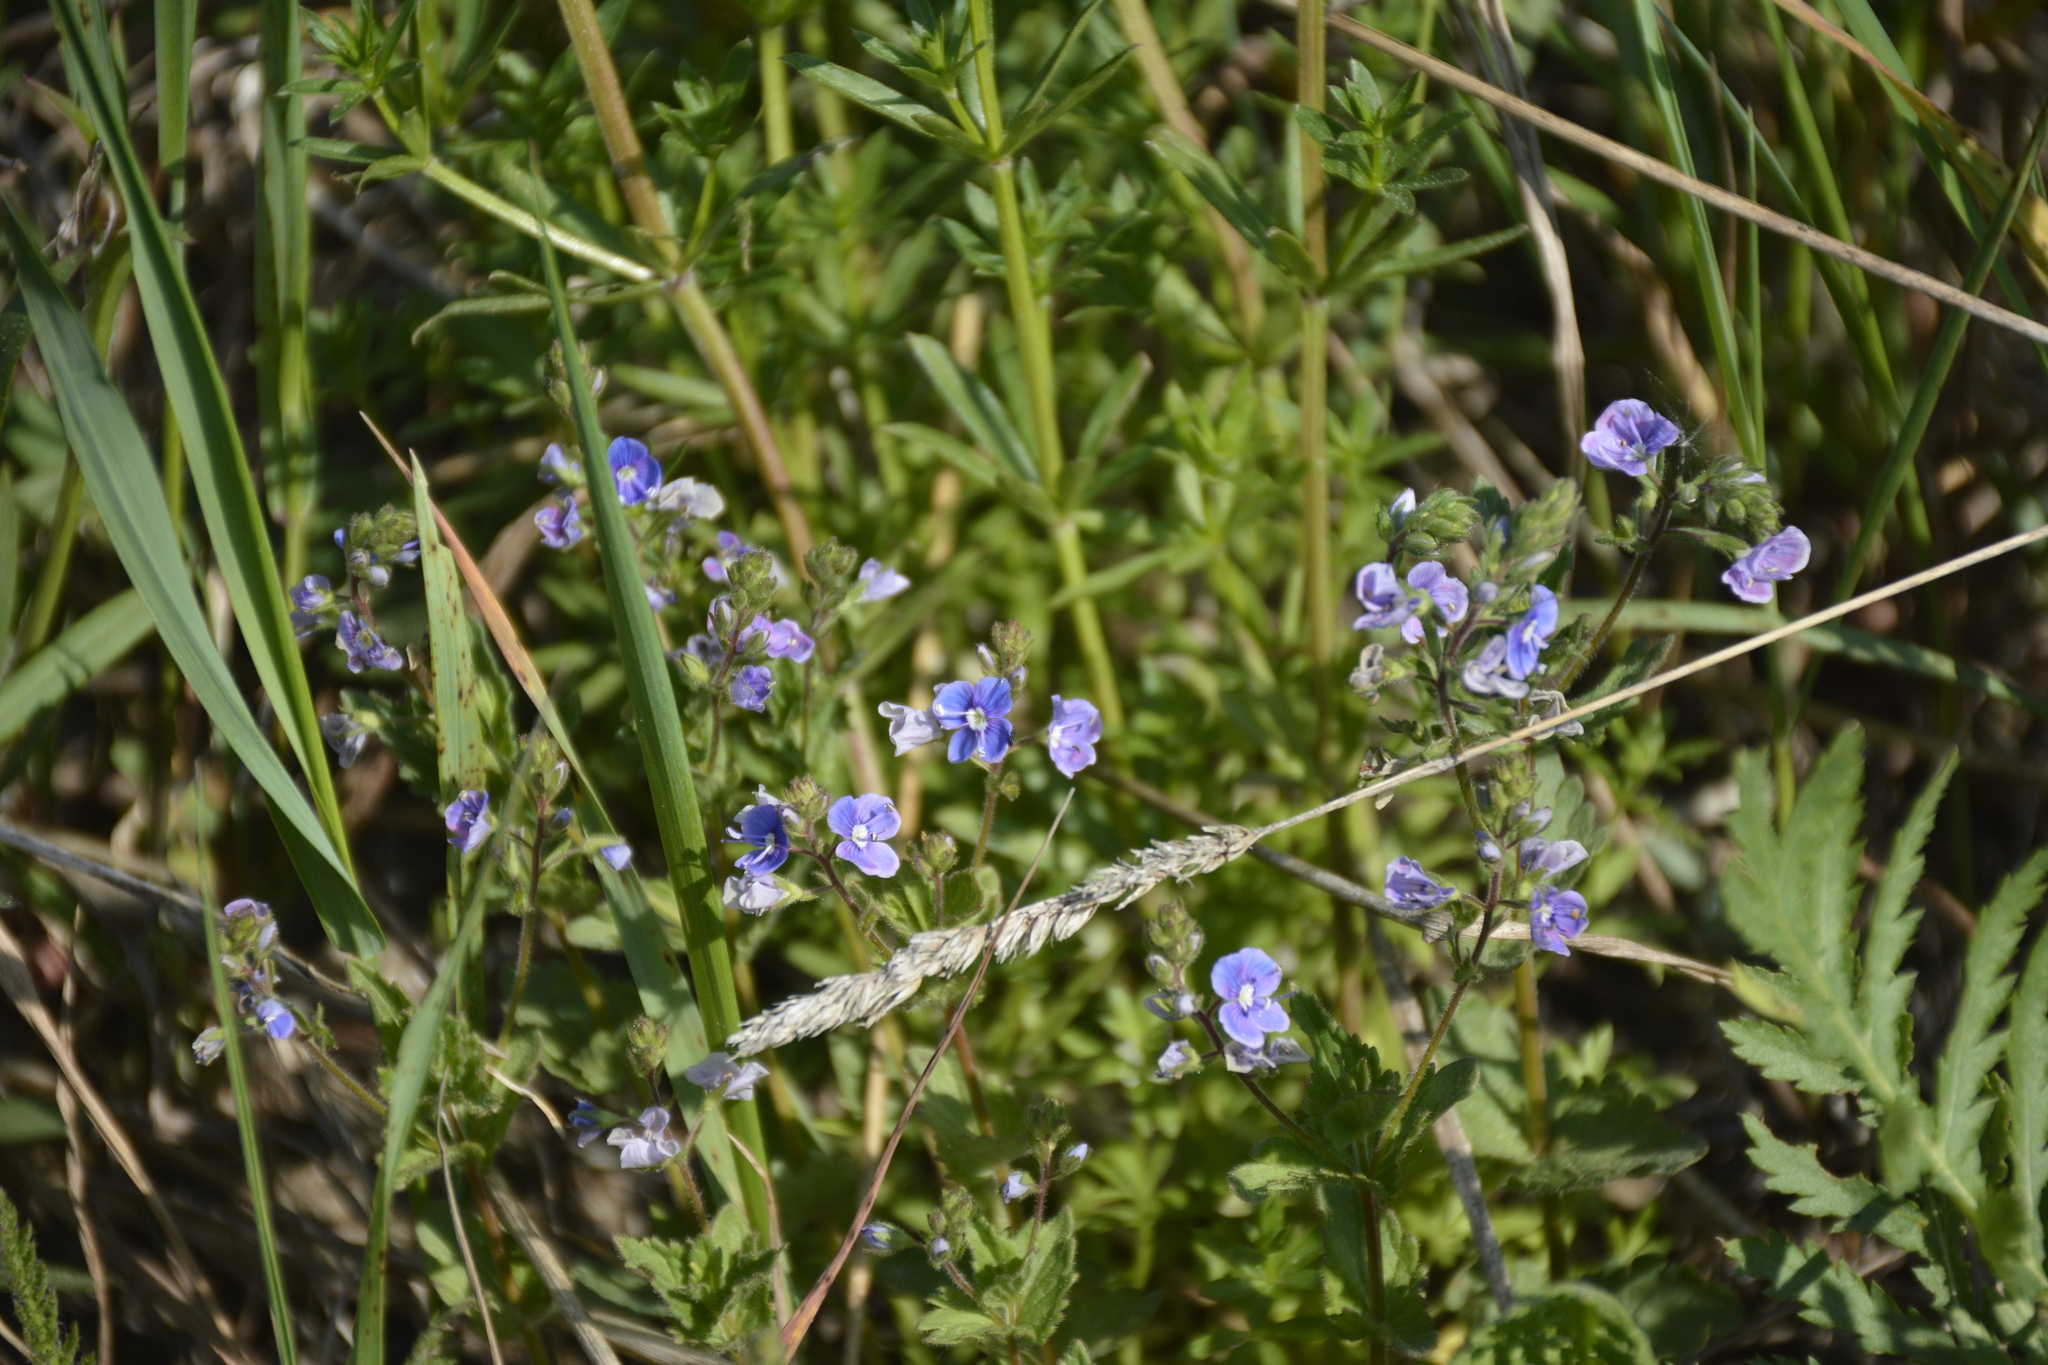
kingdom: Plantae
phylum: Tracheophyta
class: Magnoliopsida
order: Lamiales
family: Plantaginaceae
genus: Veronica
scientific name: Veronica chamaedrys
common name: Germander speedwell
